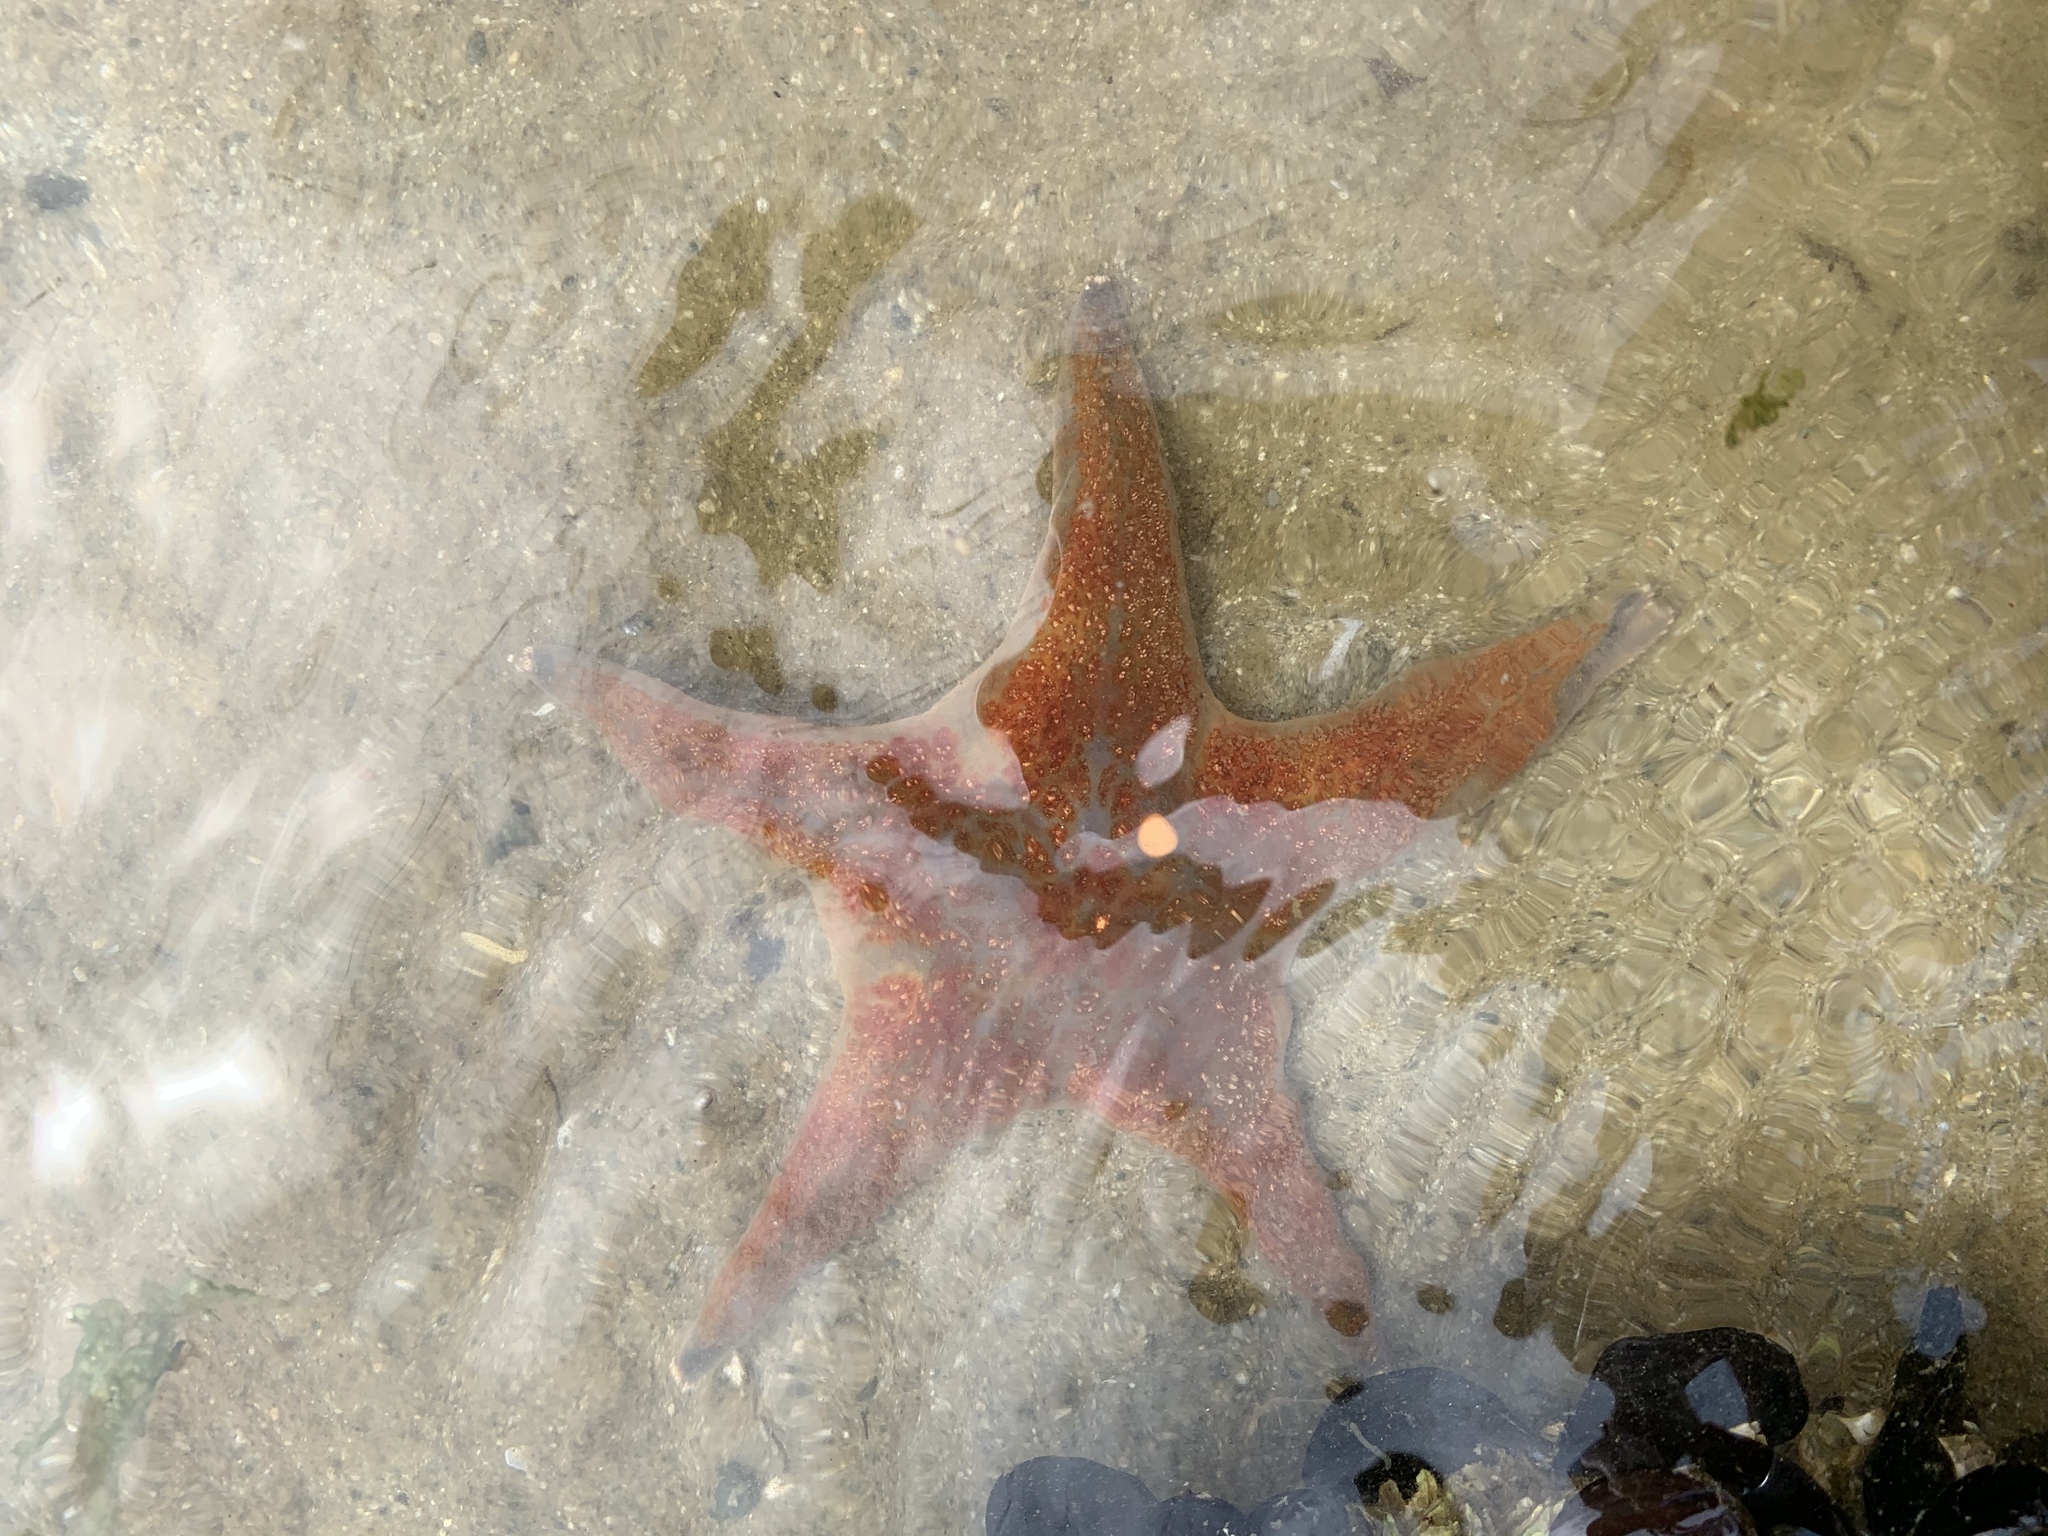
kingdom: Animalia
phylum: Echinodermata
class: Asteroidea
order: Valvatida
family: Asteropseidae
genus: Dermasterias
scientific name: Dermasterias imbricata
